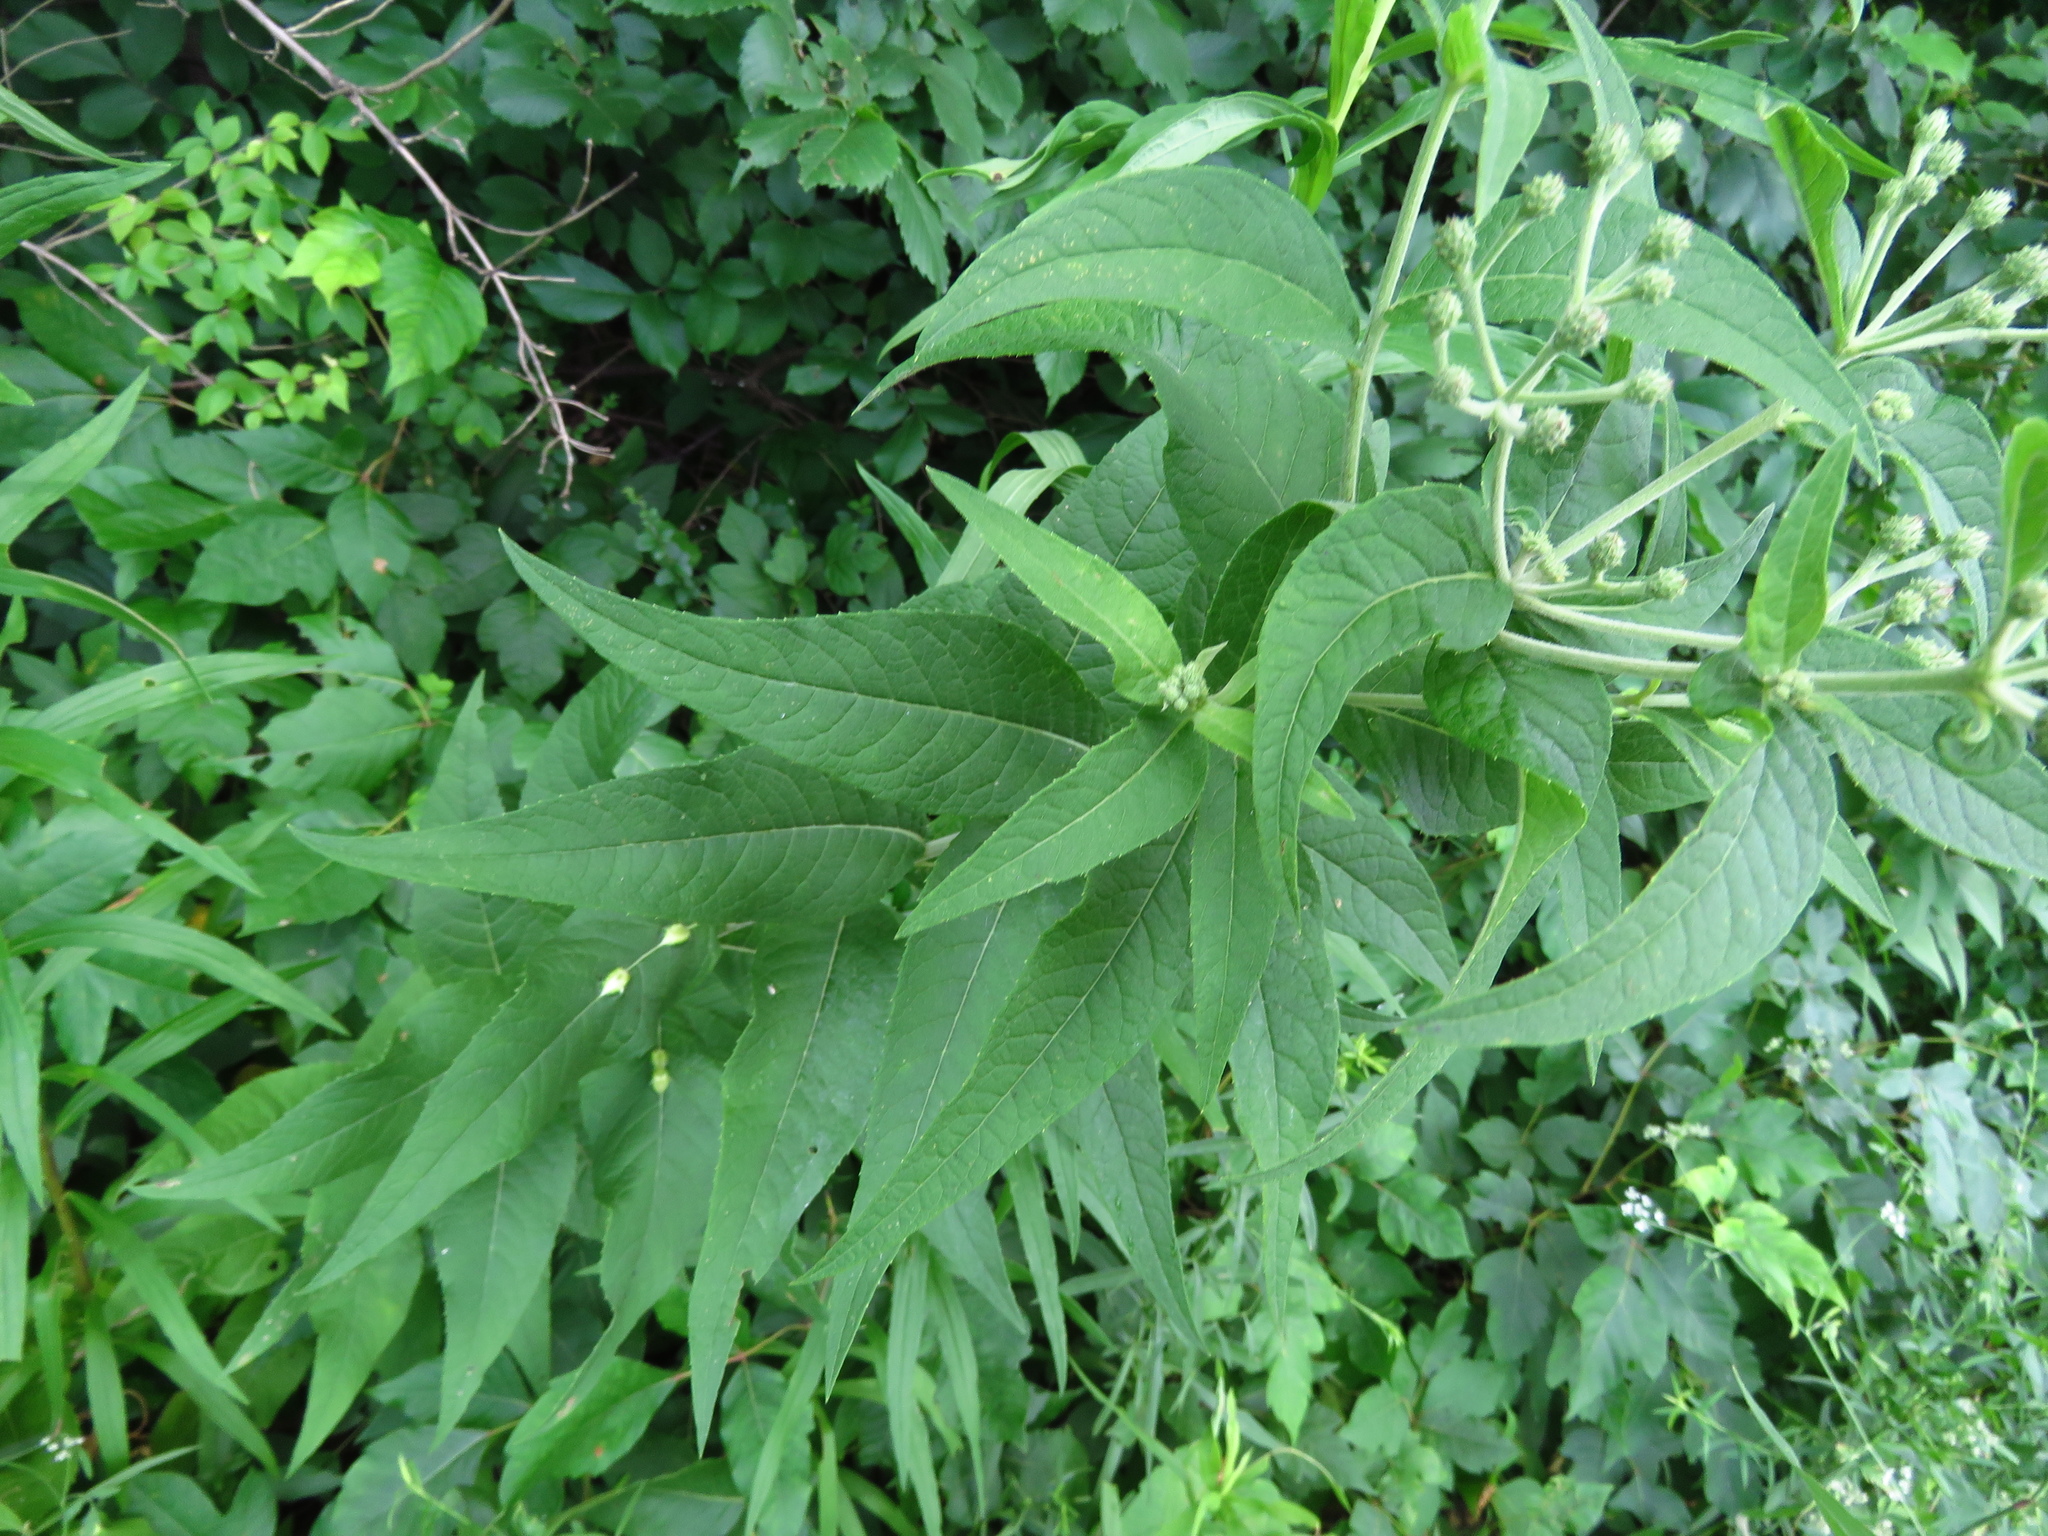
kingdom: Plantae
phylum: Tracheophyta
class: Magnoliopsida
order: Asterales
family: Asteraceae
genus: Vernonia
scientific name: Vernonia baldwinii
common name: Western ironweed
